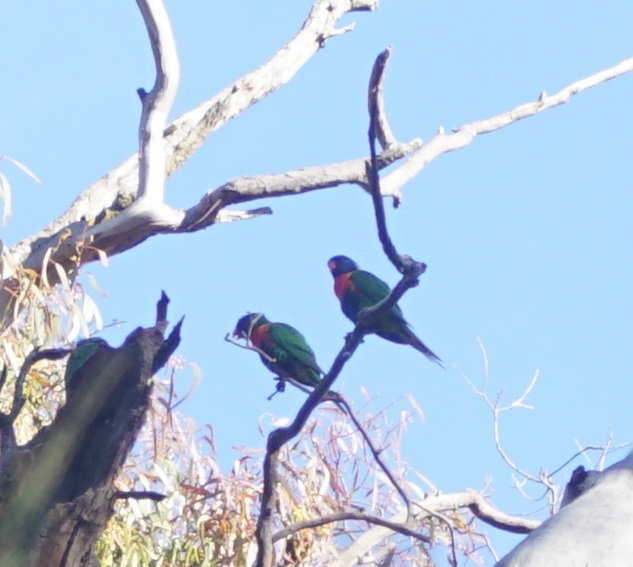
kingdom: Animalia
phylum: Chordata
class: Aves
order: Psittaciformes
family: Psittacidae
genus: Trichoglossus
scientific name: Trichoglossus haematodus
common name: Coconut lorikeet
